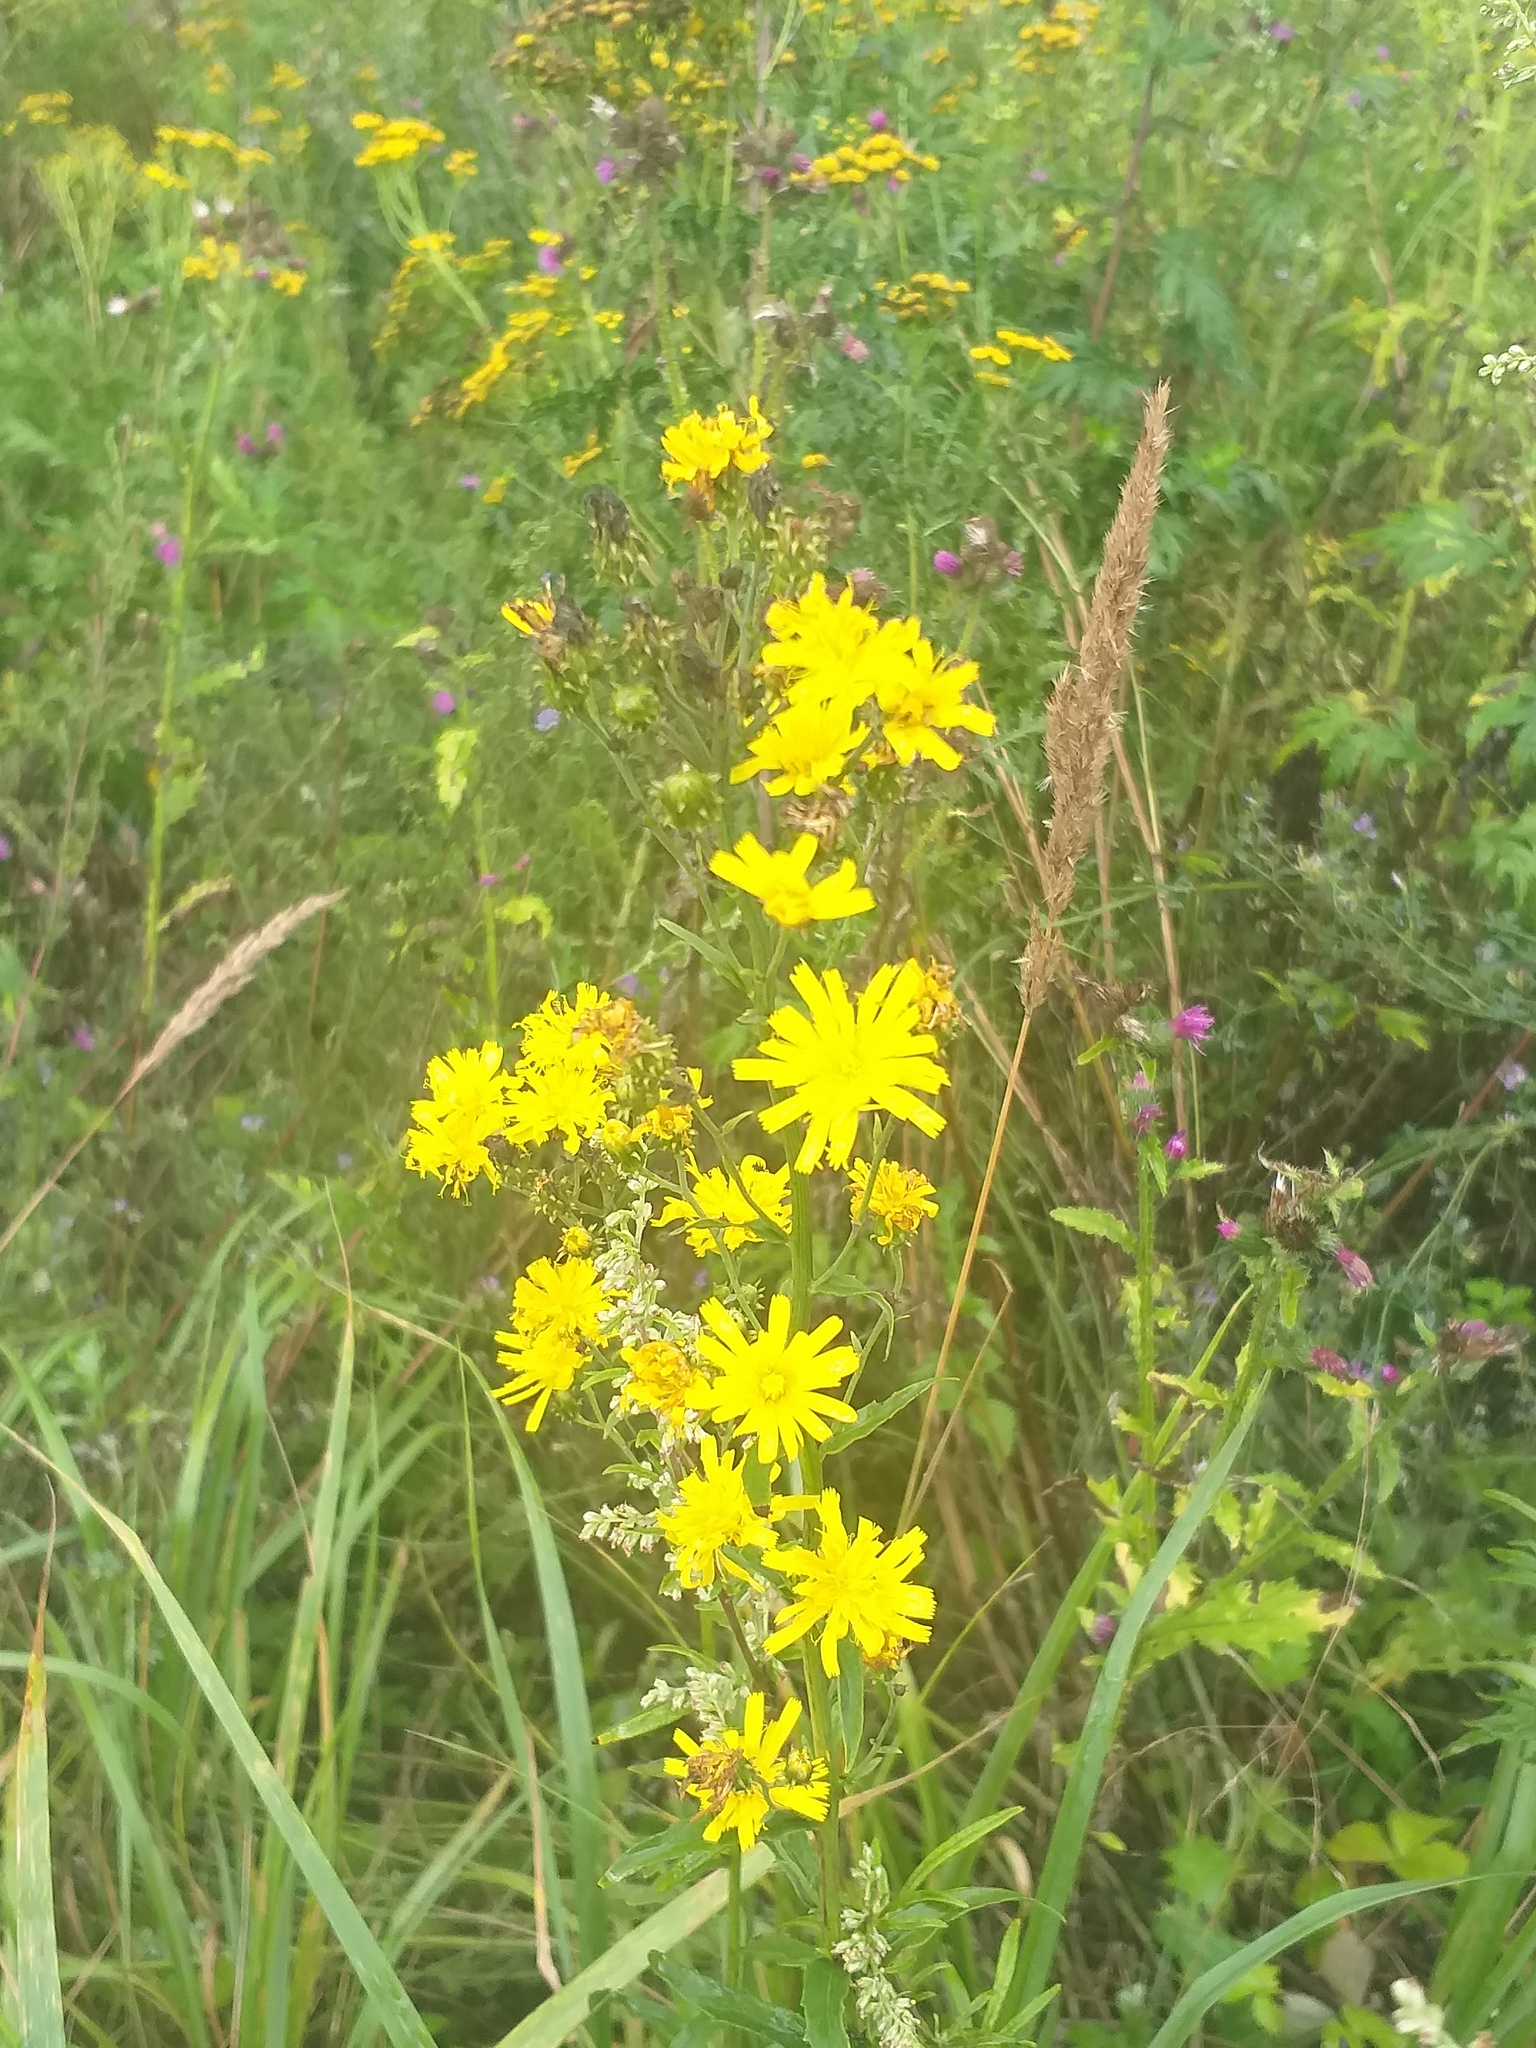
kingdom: Plantae
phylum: Tracheophyta
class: Magnoliopsida
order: Asterales
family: Asteraceae
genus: Hieracium
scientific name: Hieracium umbellatum
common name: Northern hawkweed
